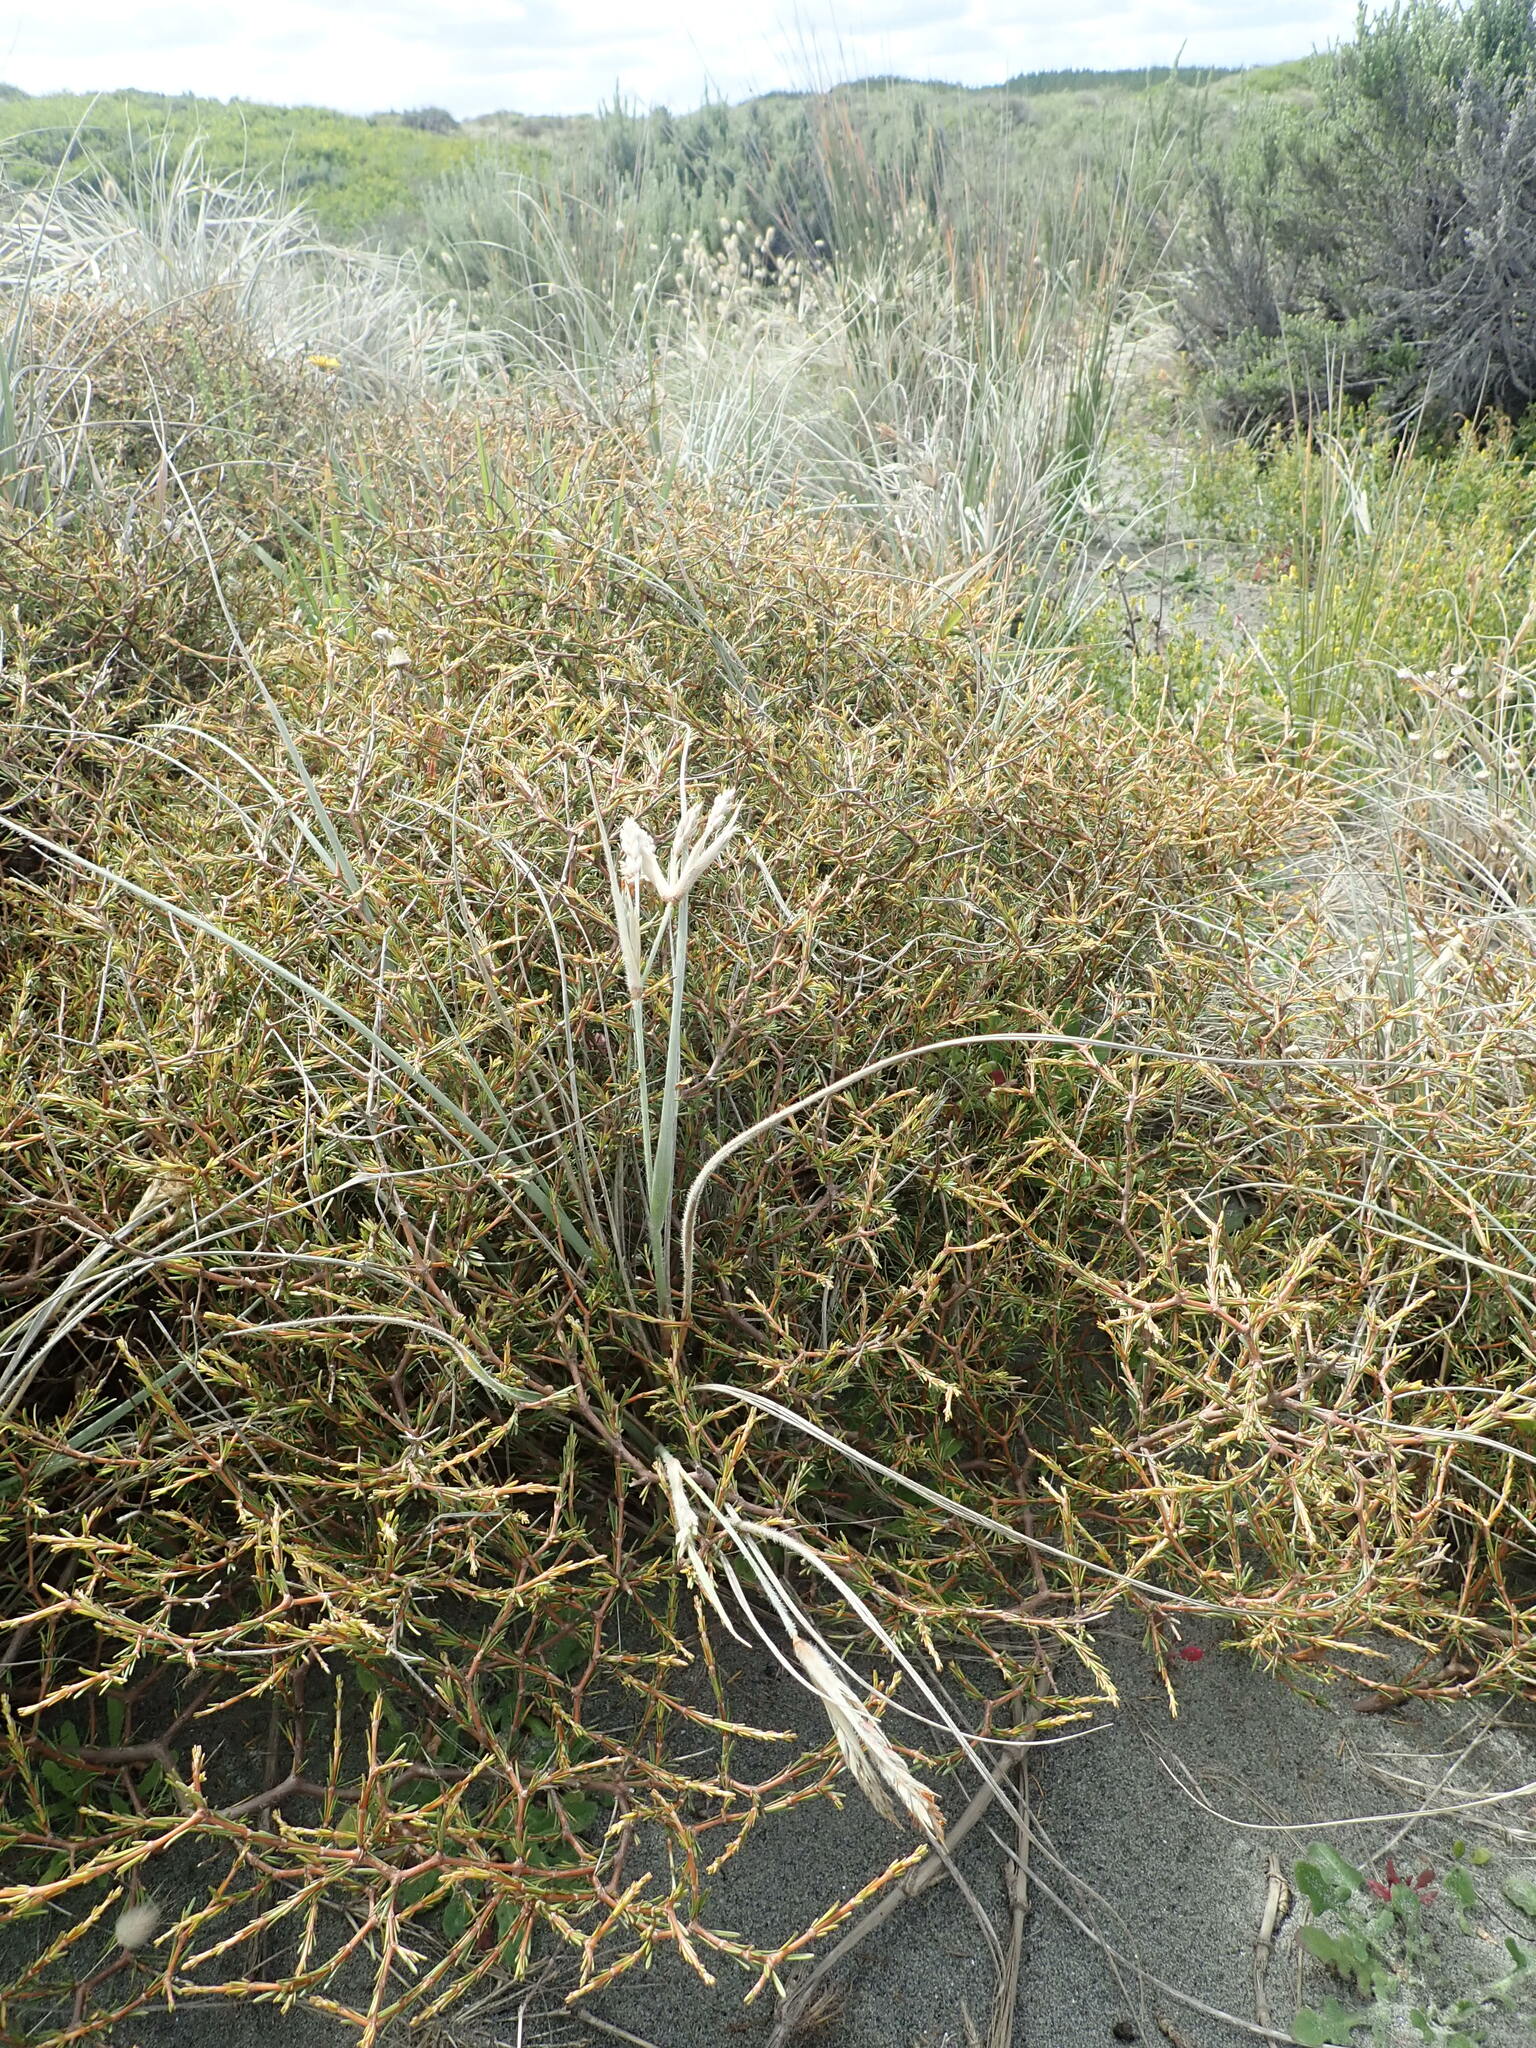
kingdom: Plantae
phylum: Tracheophyta
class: Magnoliopsida
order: Gentianales
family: Rubiaceae
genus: Coprosma
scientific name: Coprosma acerosa
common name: Sand coprosma
